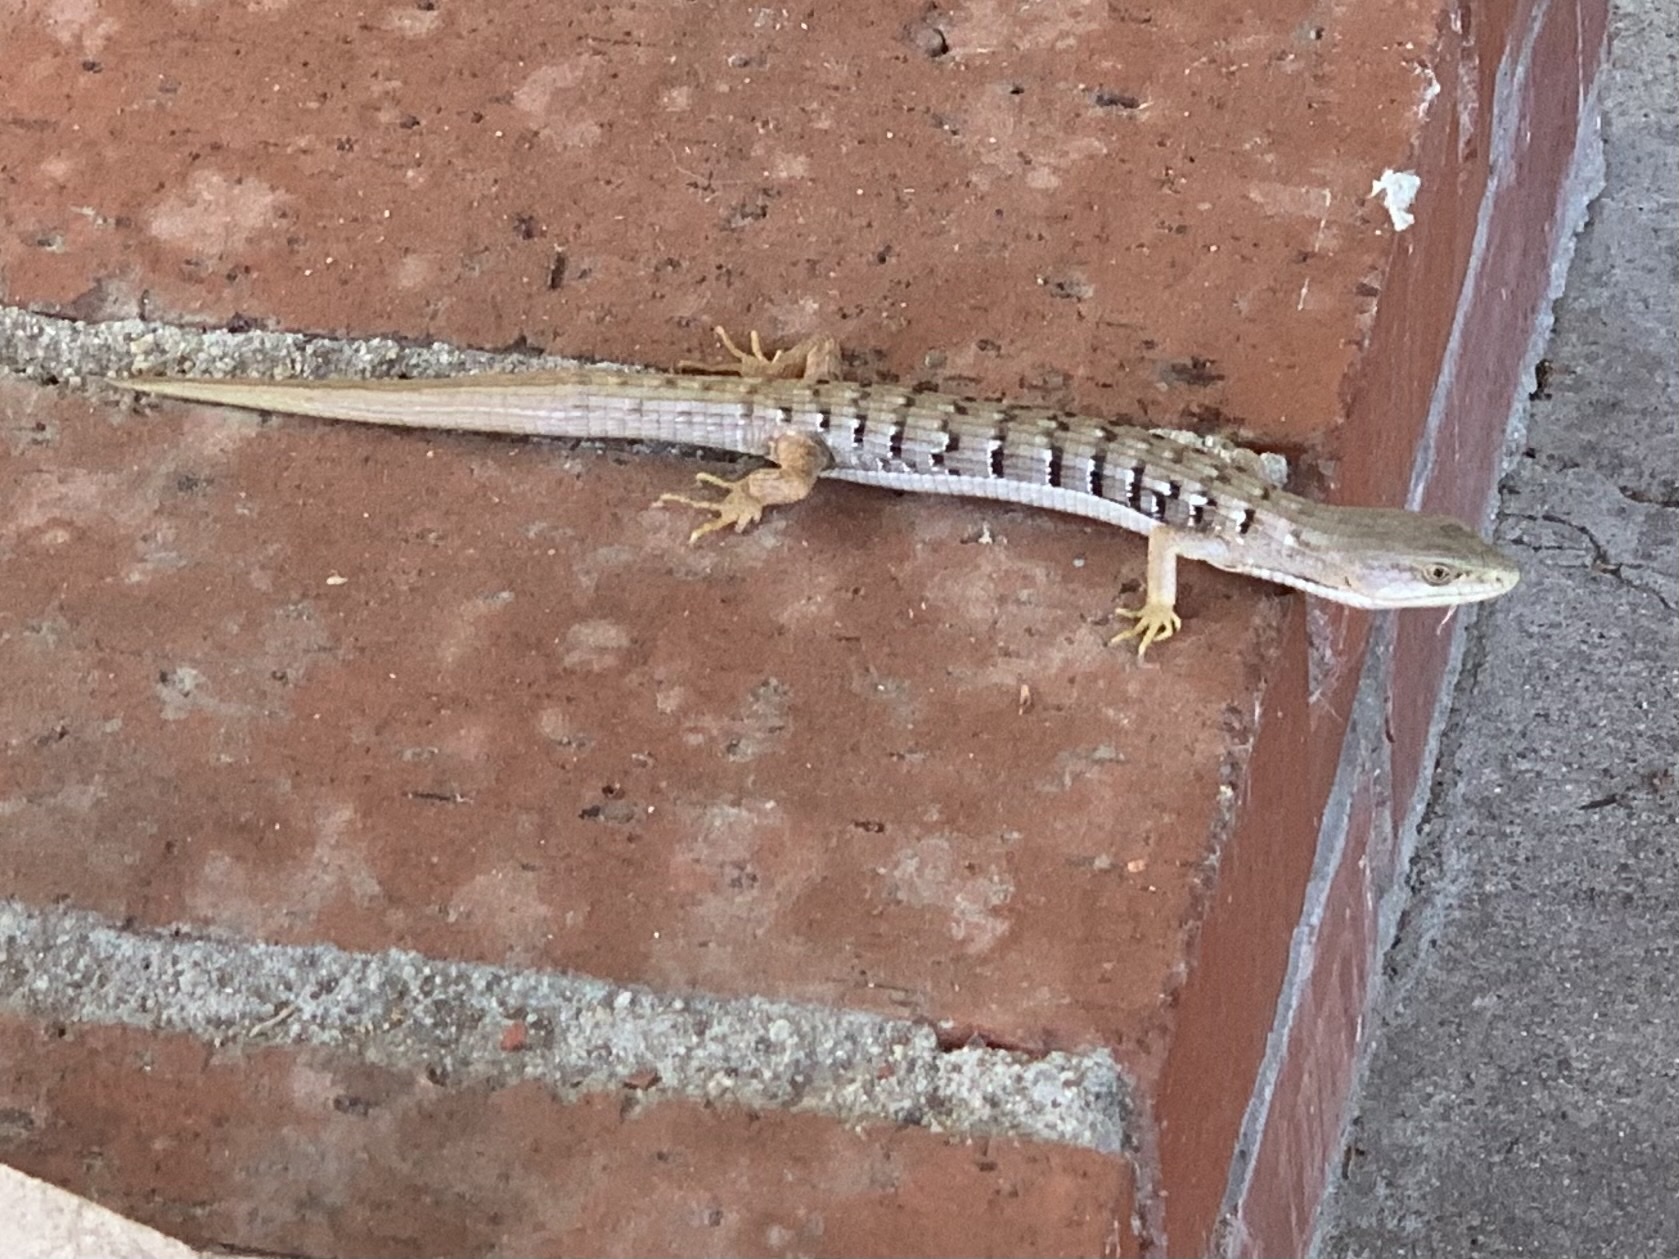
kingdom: Animalia
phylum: Chordata
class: Squamata
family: Anguidae
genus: Elgaria
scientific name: Elgaria multicarinata
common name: Southern alligator lizard
